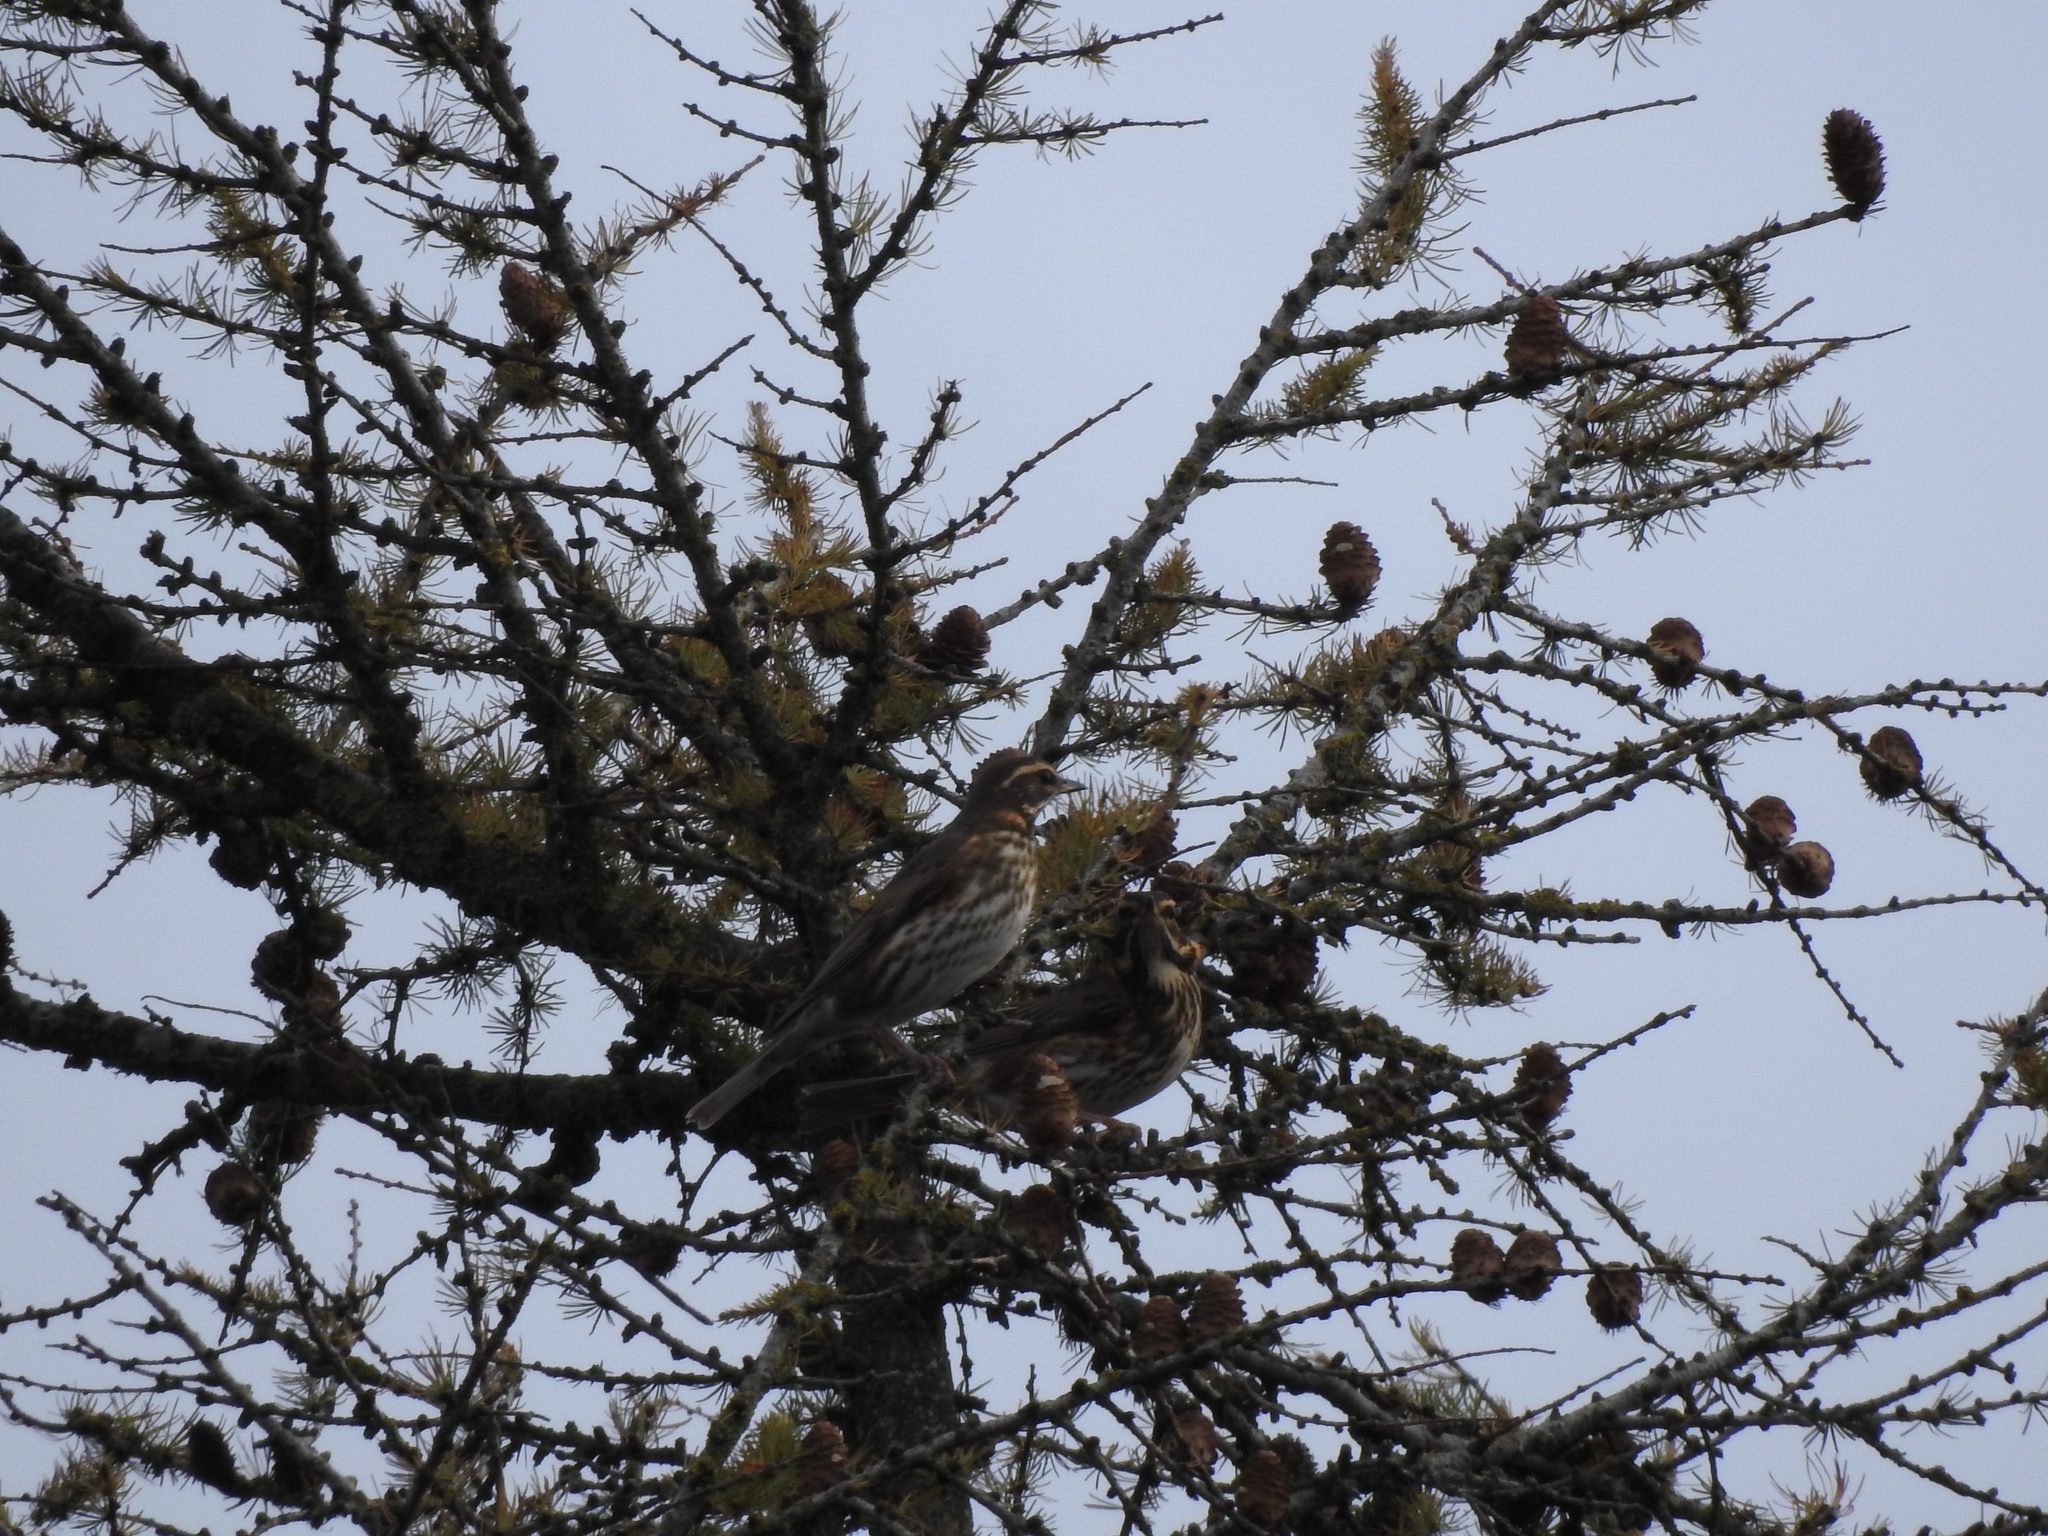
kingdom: Animalia
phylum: Chordata
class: Aves
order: Passeriformes
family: Turdidae
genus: Turdus
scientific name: Turdus iliacus
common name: Redwing
